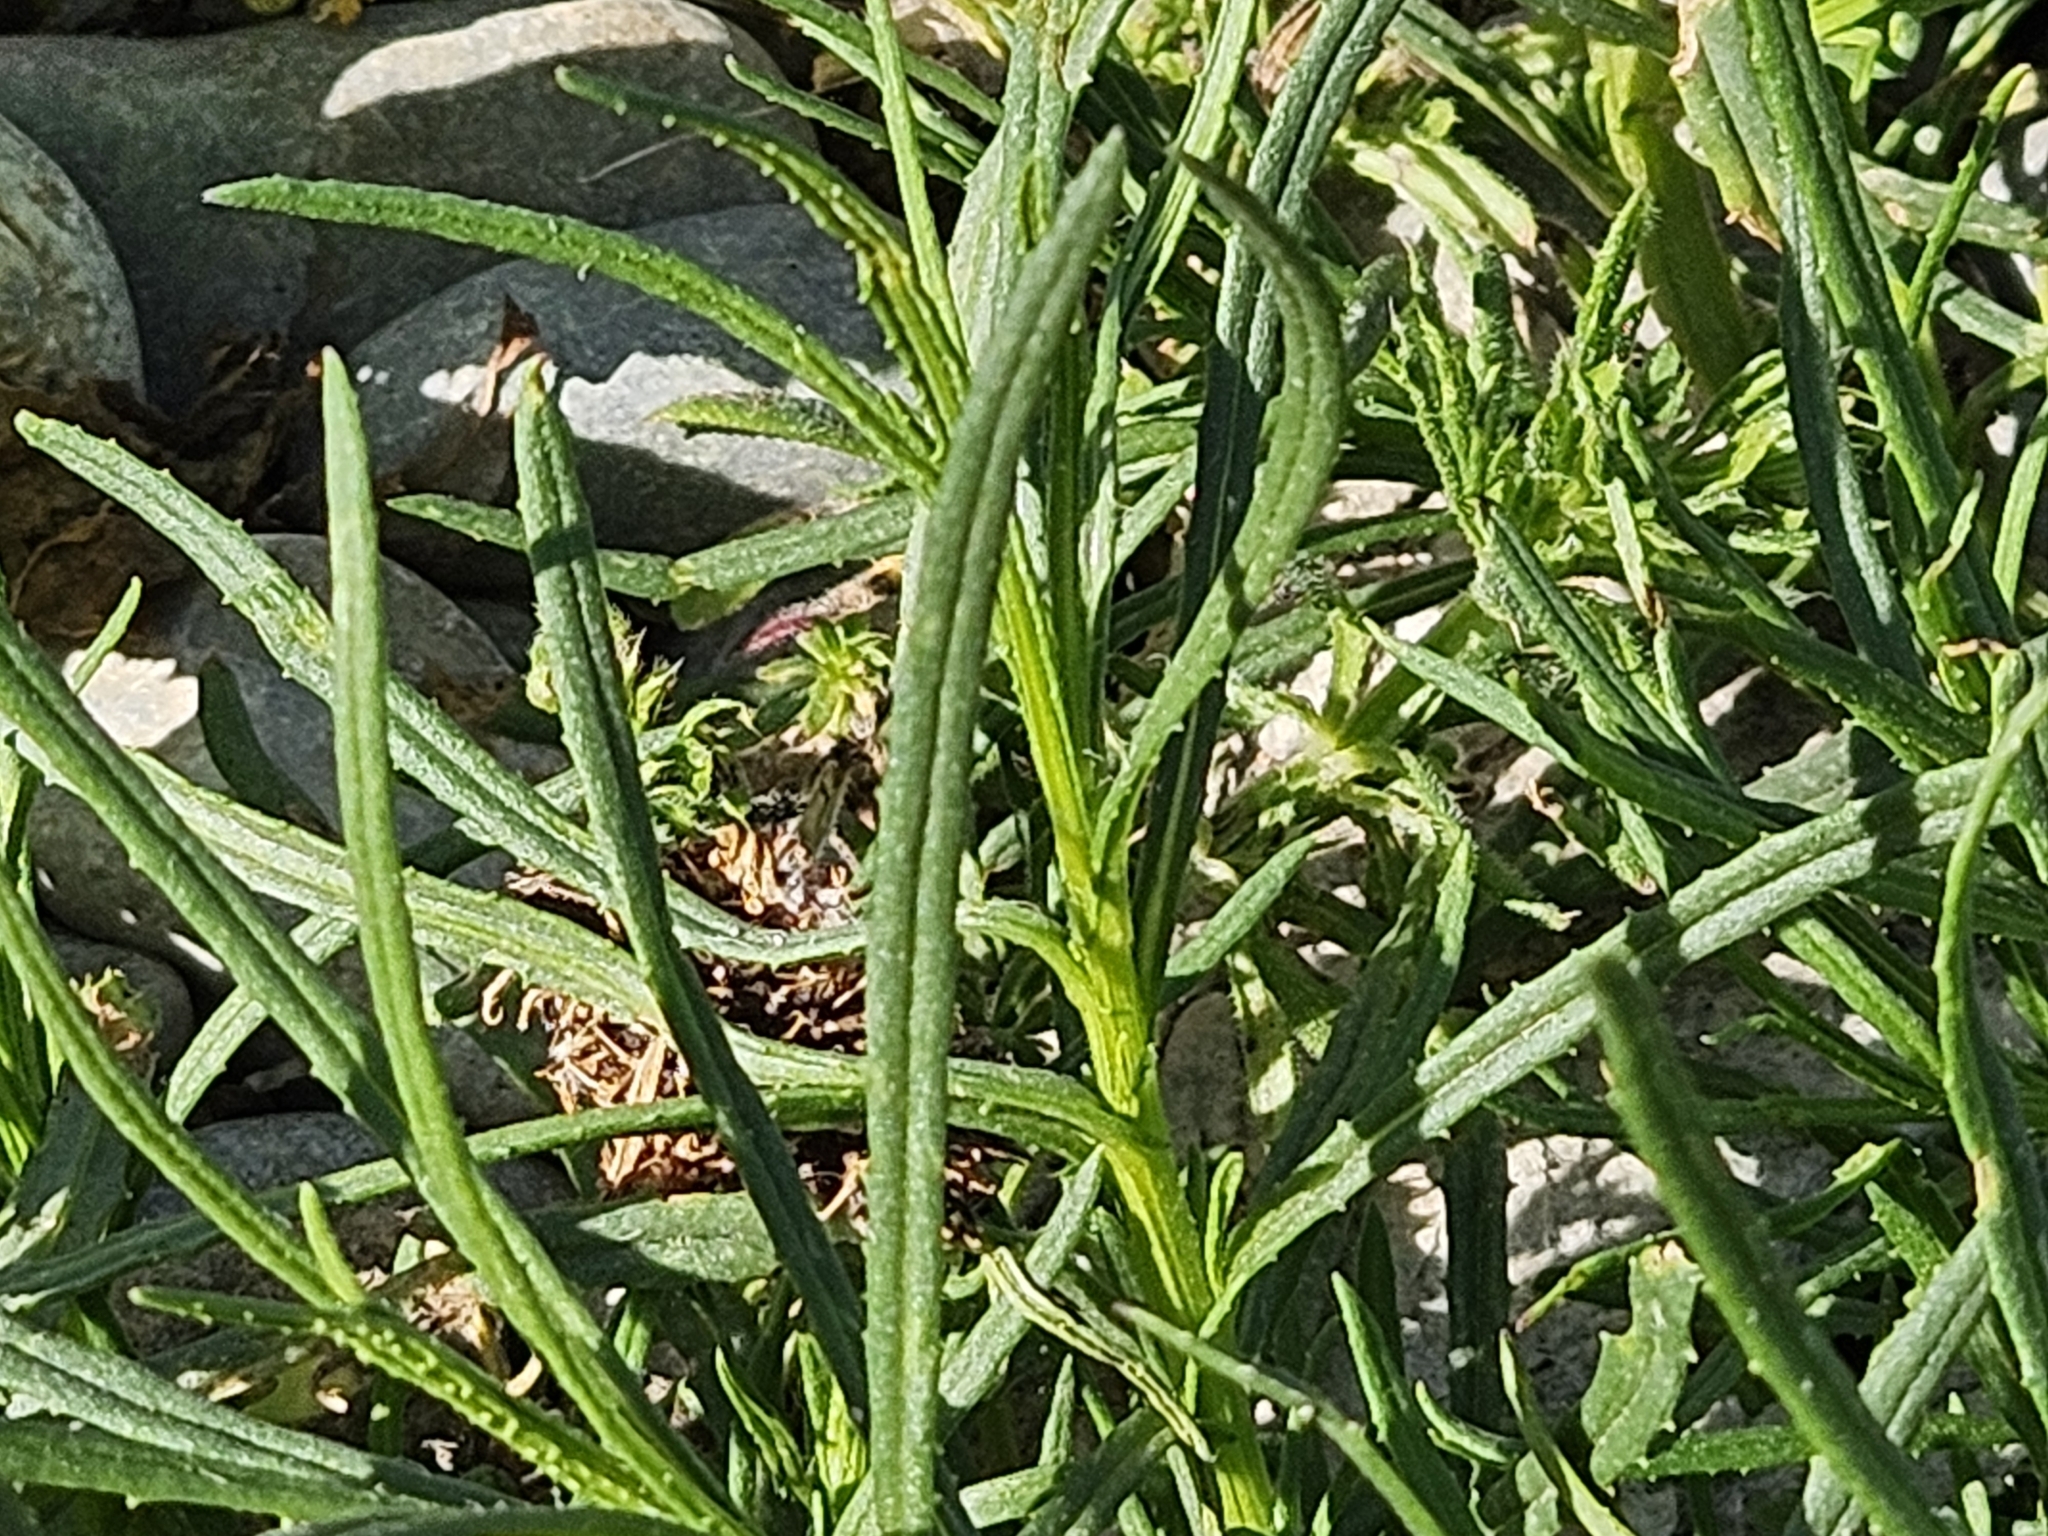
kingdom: Plantae
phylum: Tracheophyta
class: Magnoliopsida
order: Asterales
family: Asteraceae
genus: Senecio
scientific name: Senecio inaequidens
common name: Narrow-leaved ragwort
